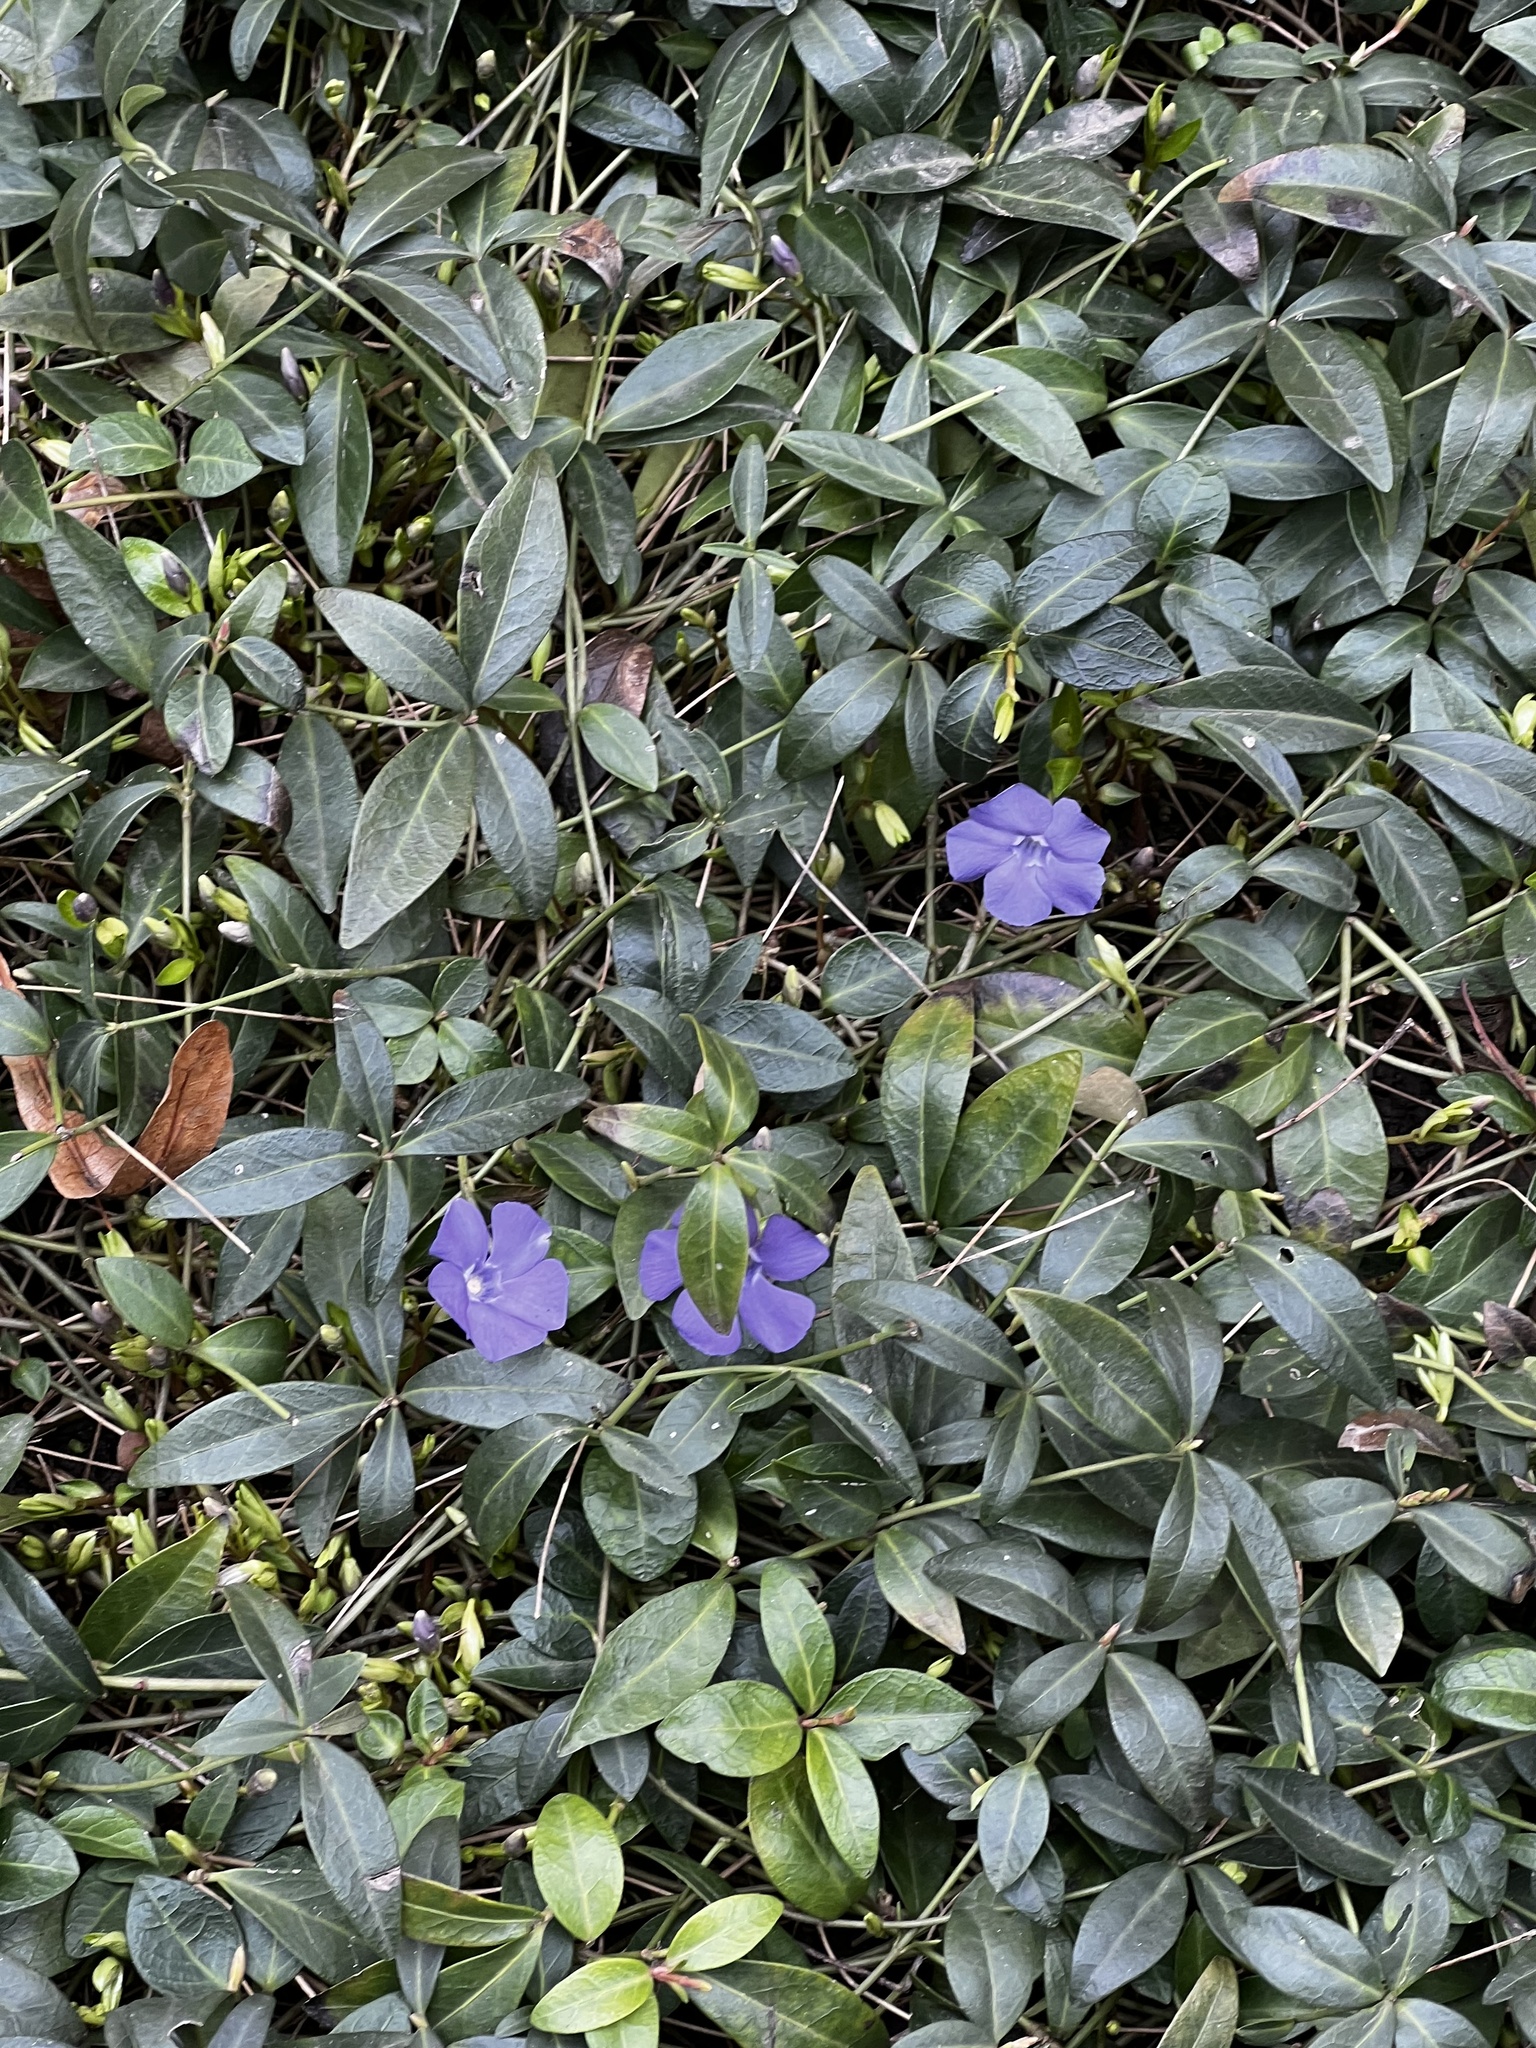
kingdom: Plantae
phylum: Tracheophyta
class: Magnoliopsida
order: Gentianales
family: Apocynaceae
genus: Vinca
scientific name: Vinca minor
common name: Lesser periwinkle
